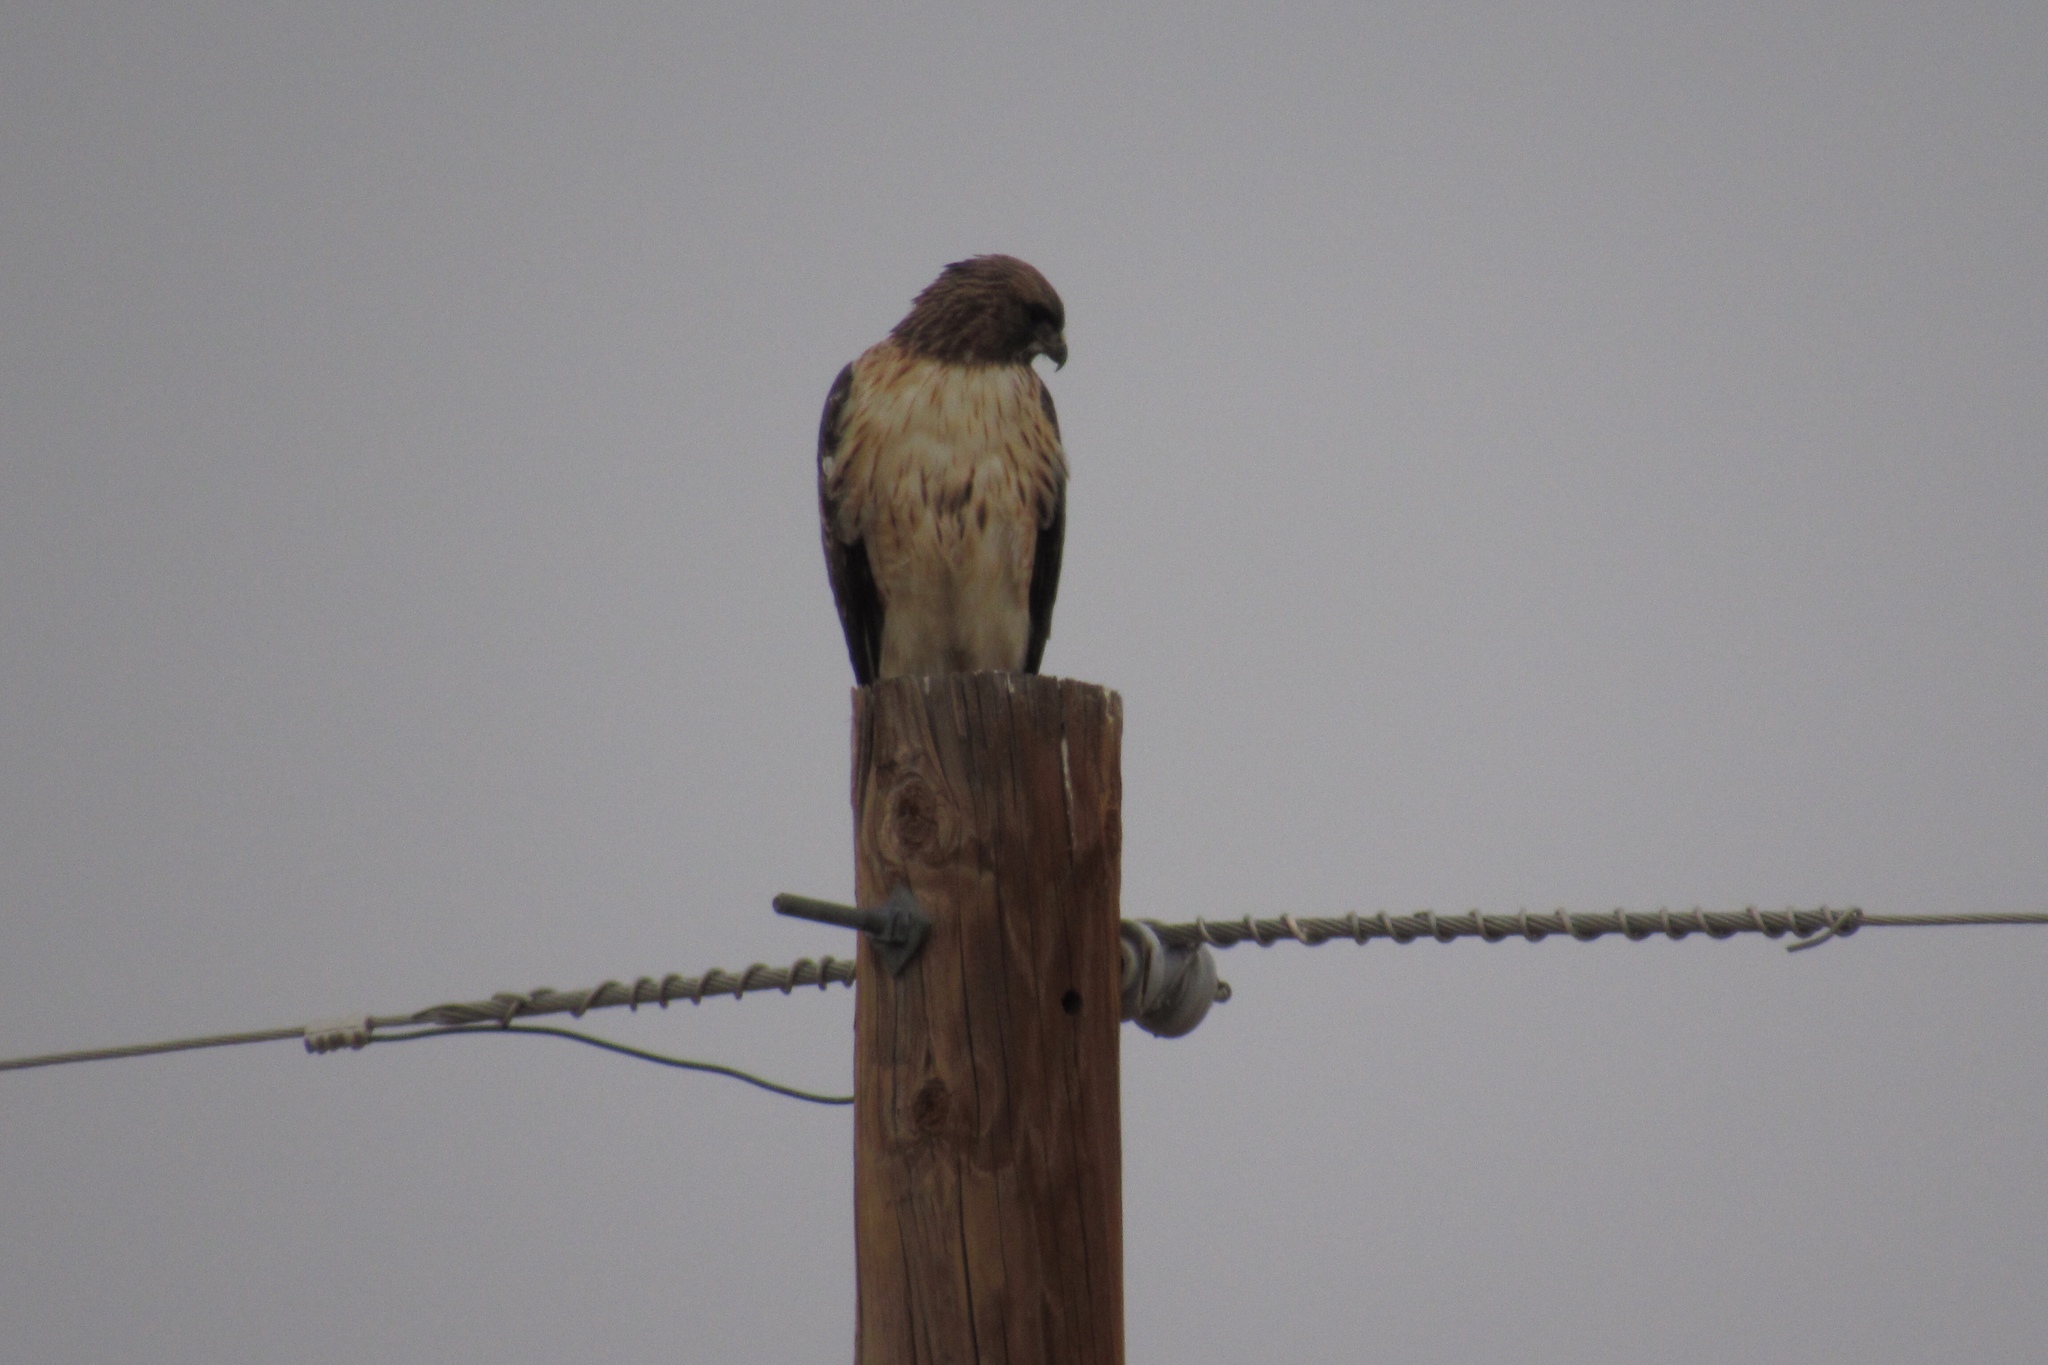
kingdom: Animalia
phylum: Chordata
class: Aves
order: Accipitriformes
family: Accipitridae
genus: Buteo
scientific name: Buteo jamaicensis
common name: Red-tailed hawk
